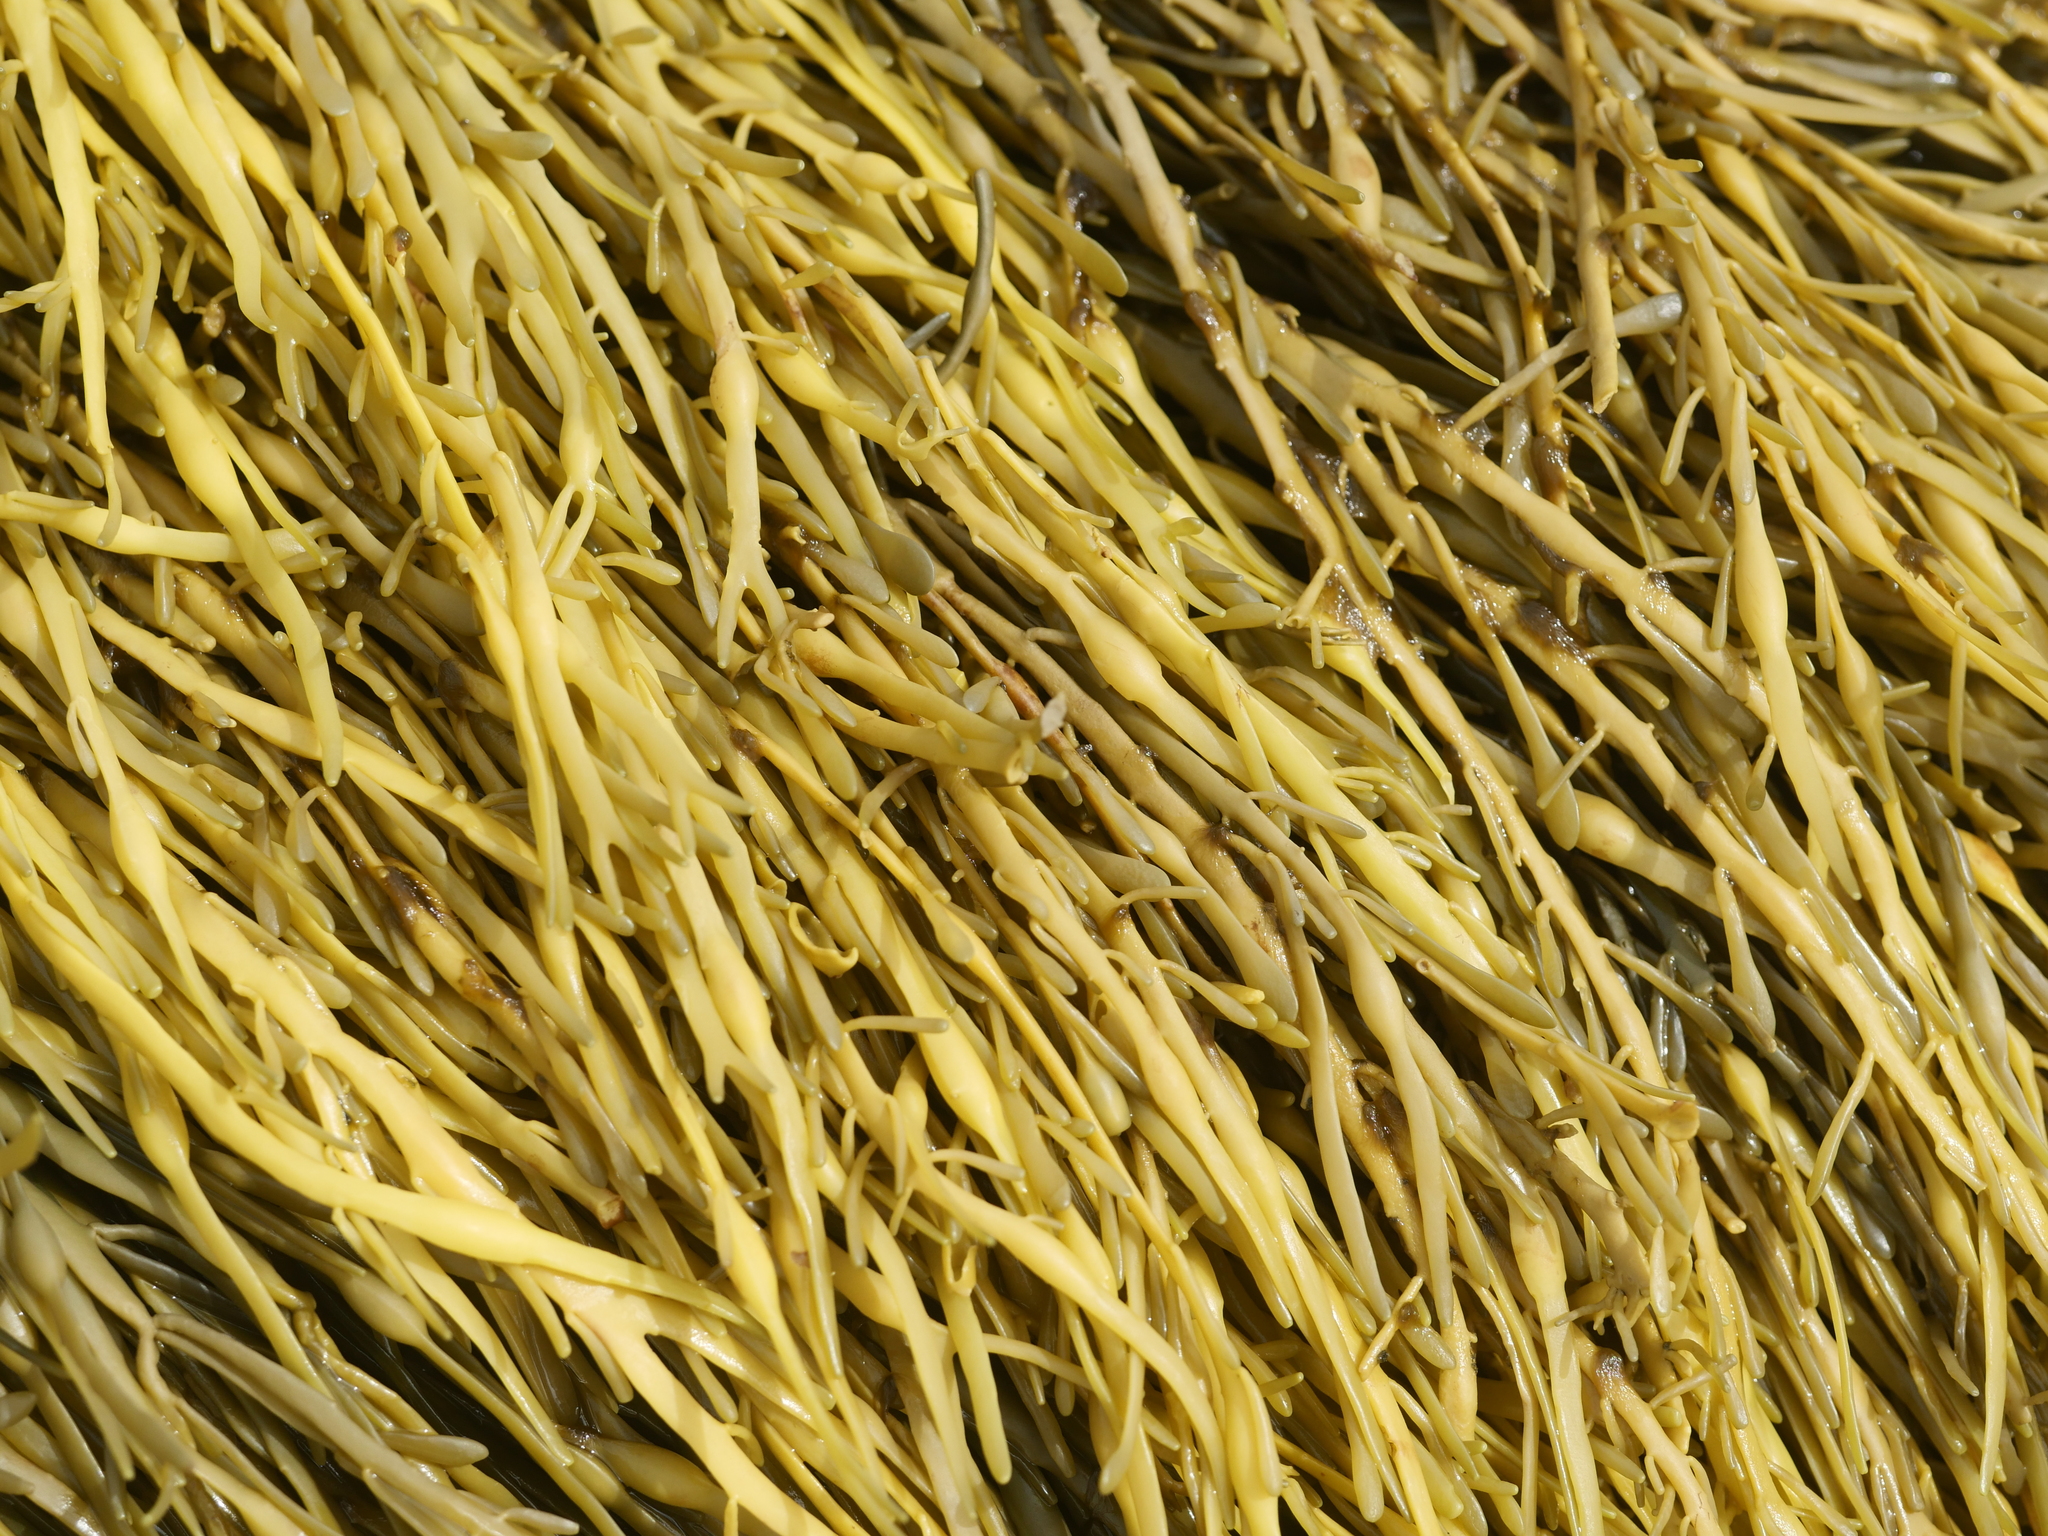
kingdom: Chromista
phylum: Ochrophyta
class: Phaeophyceae
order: Fucales
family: Fucaceae
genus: Ascophyllum
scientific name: Ascophyllum nodosum
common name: Knotted wrack
